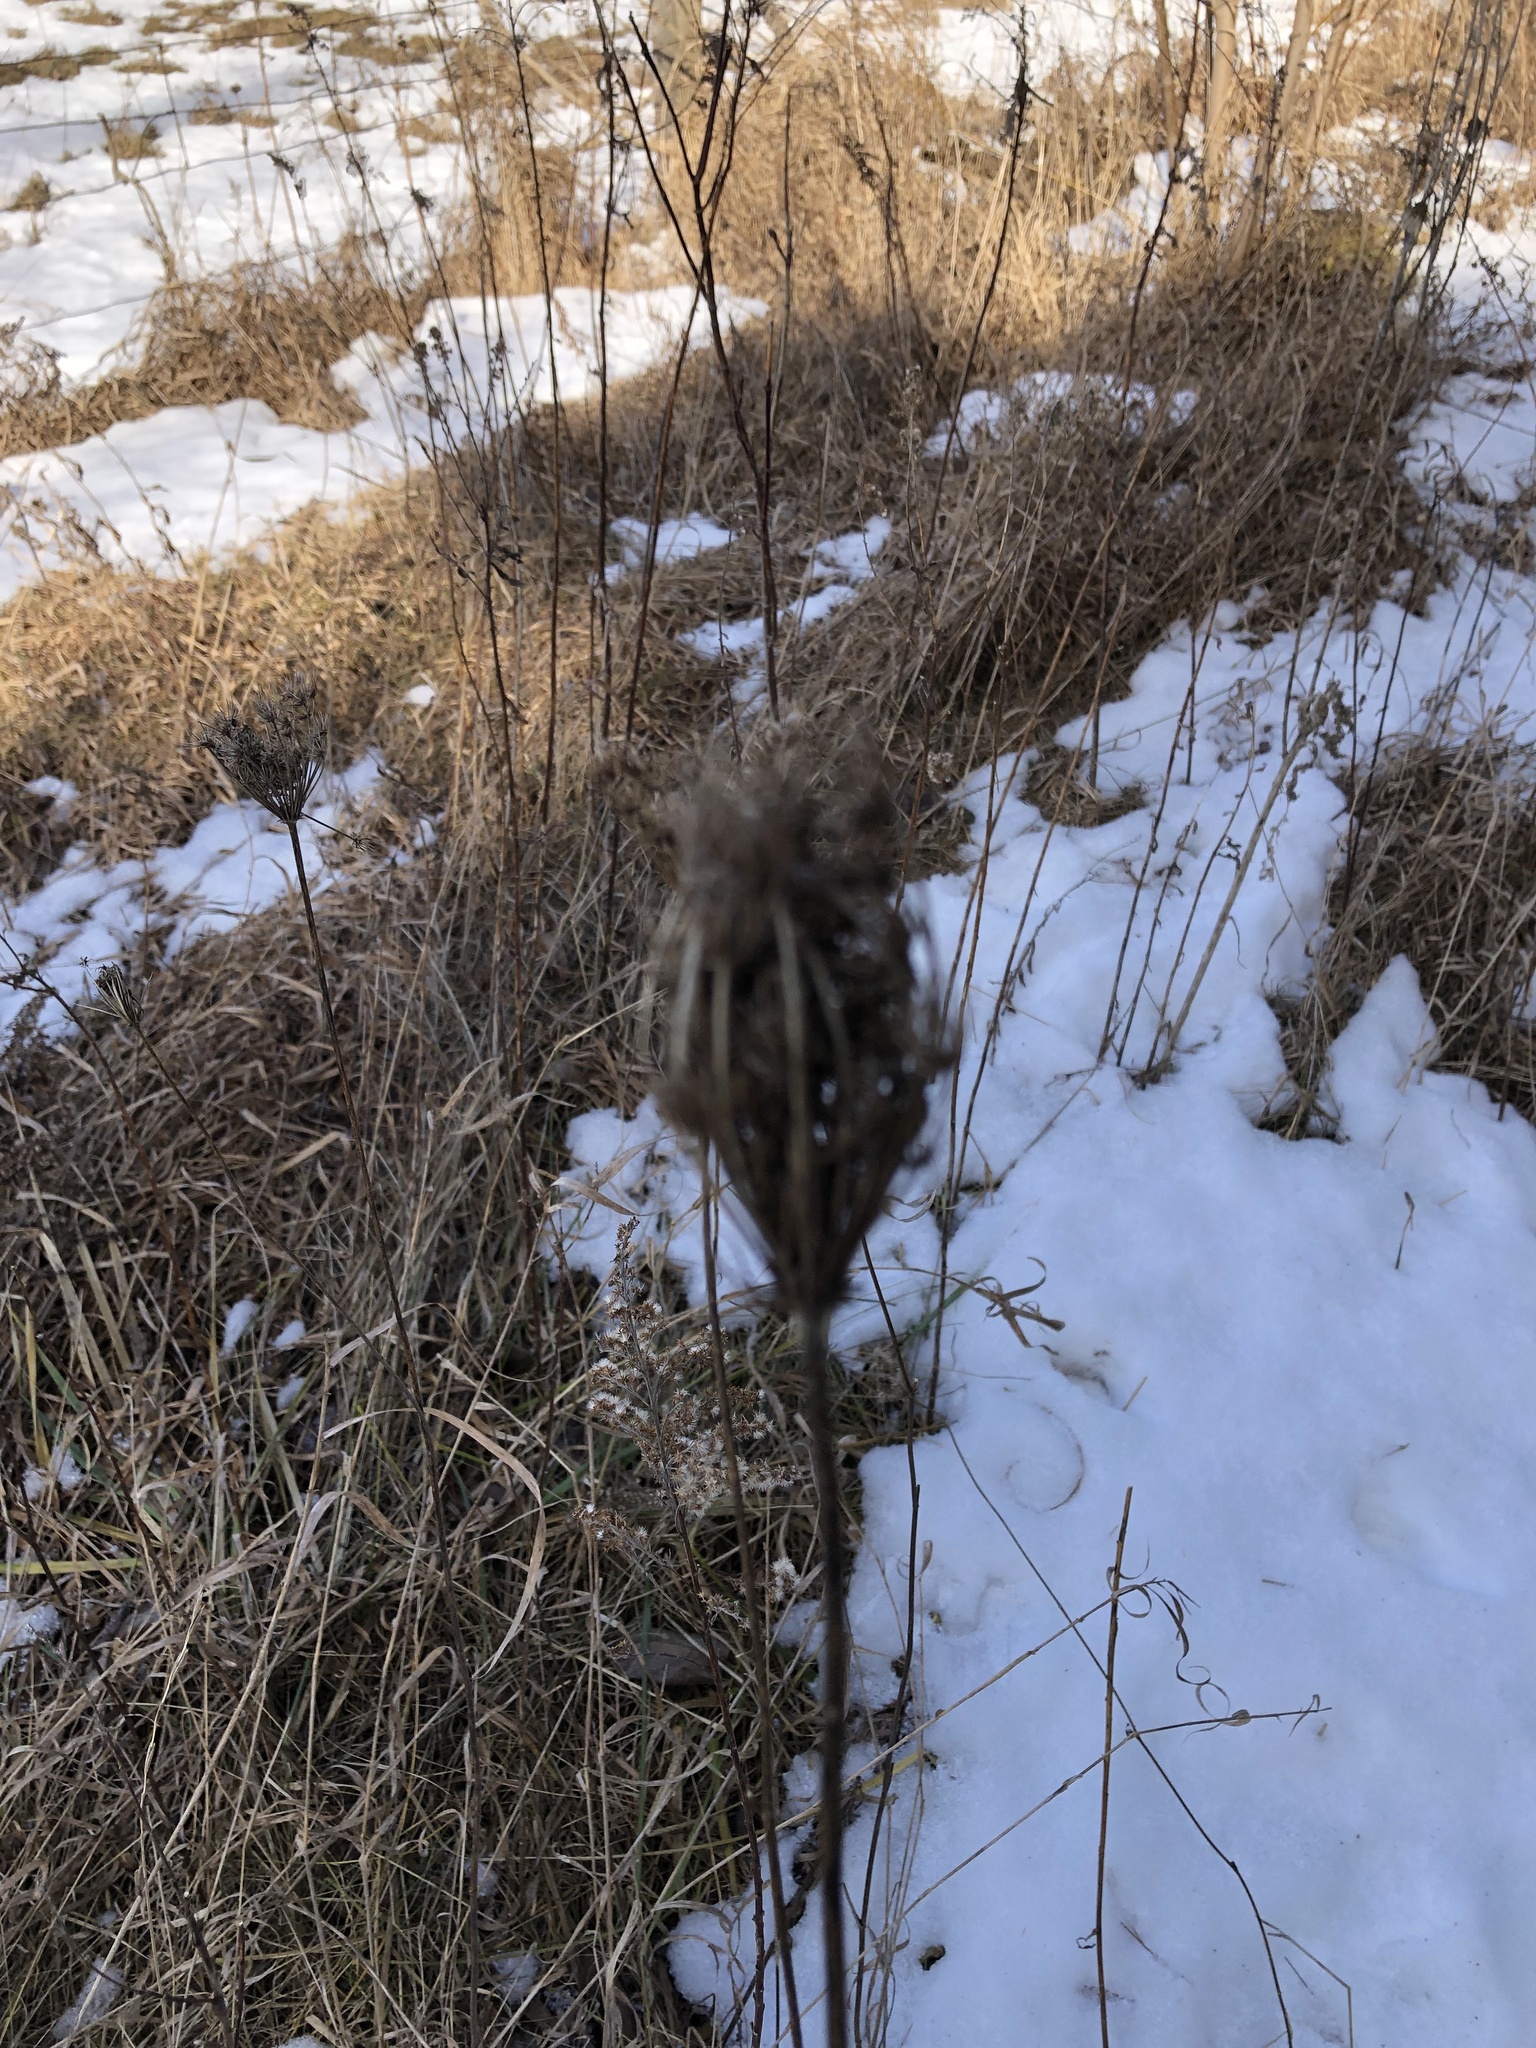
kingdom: Plantae
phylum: Tracheophyta
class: Magnoliopsida
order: Apiales
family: Apiaceae
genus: Daucus
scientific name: Daucus carota
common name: Wild carrot
